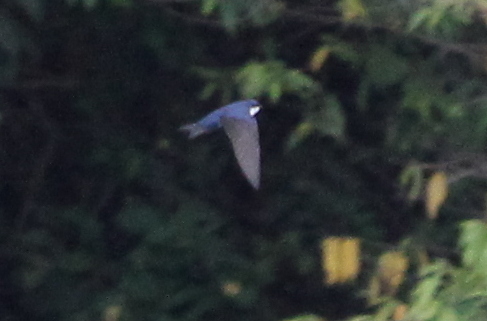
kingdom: Animalia
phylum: Chordata
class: Aves
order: Passeriformes
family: Hirundinidae
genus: Notiochelidon
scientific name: Notiochelidon cyanoleuca
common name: Blue-and-white swallow
